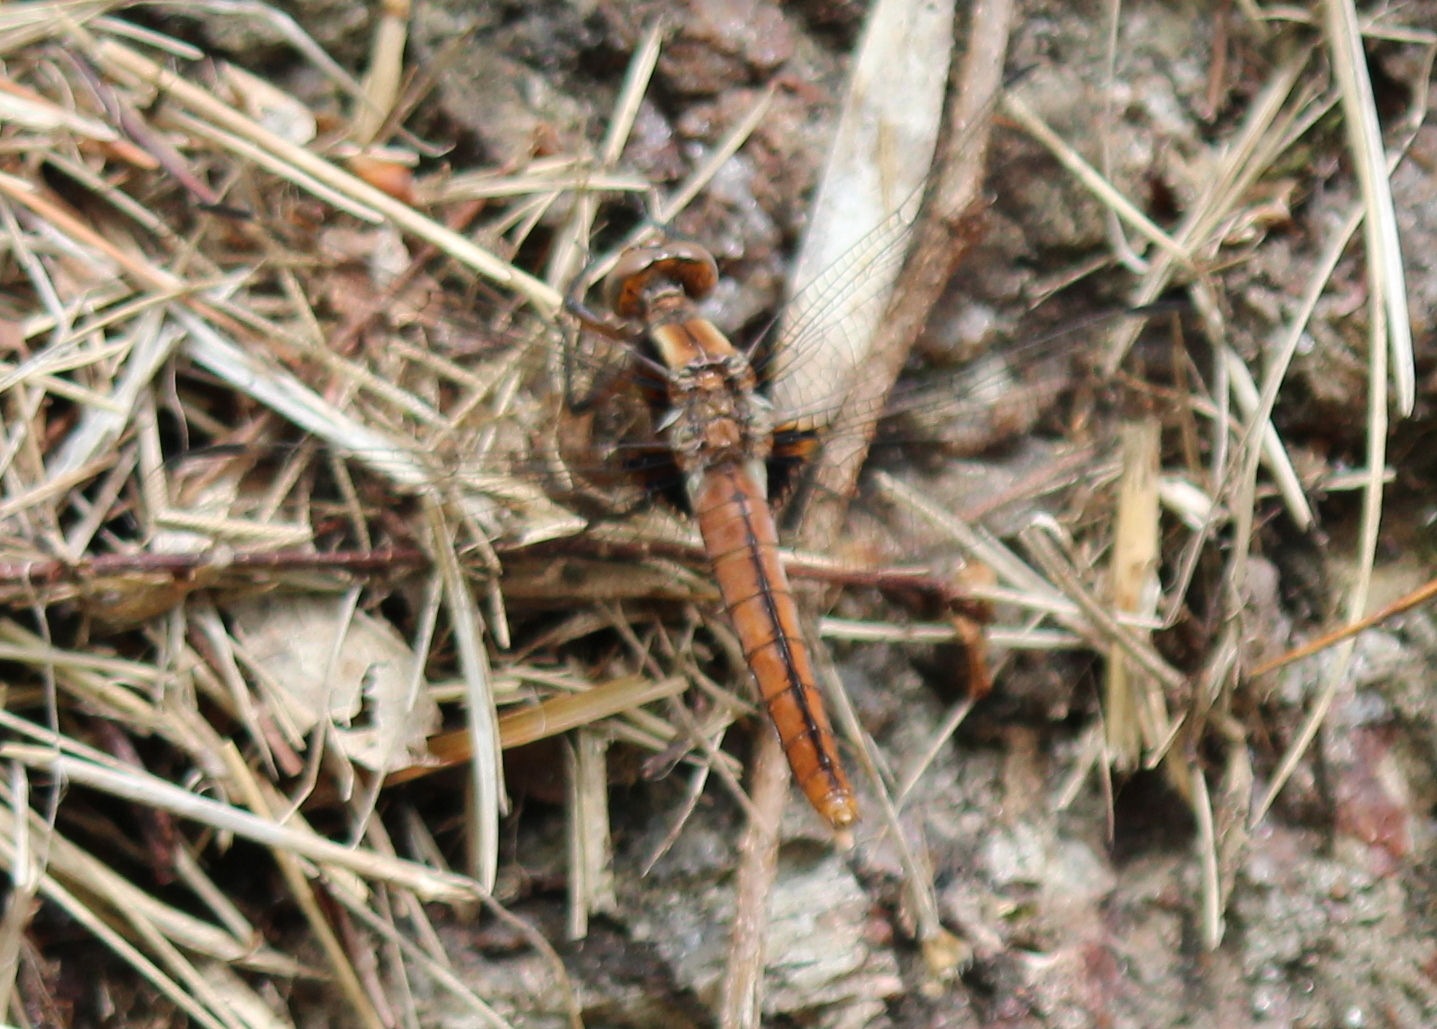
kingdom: Animalia
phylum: Arthropoda
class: Insecta
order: Odonata
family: Libellulidae
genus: Ladona
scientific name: Ladona julia
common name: Chalk-fronted corporal
